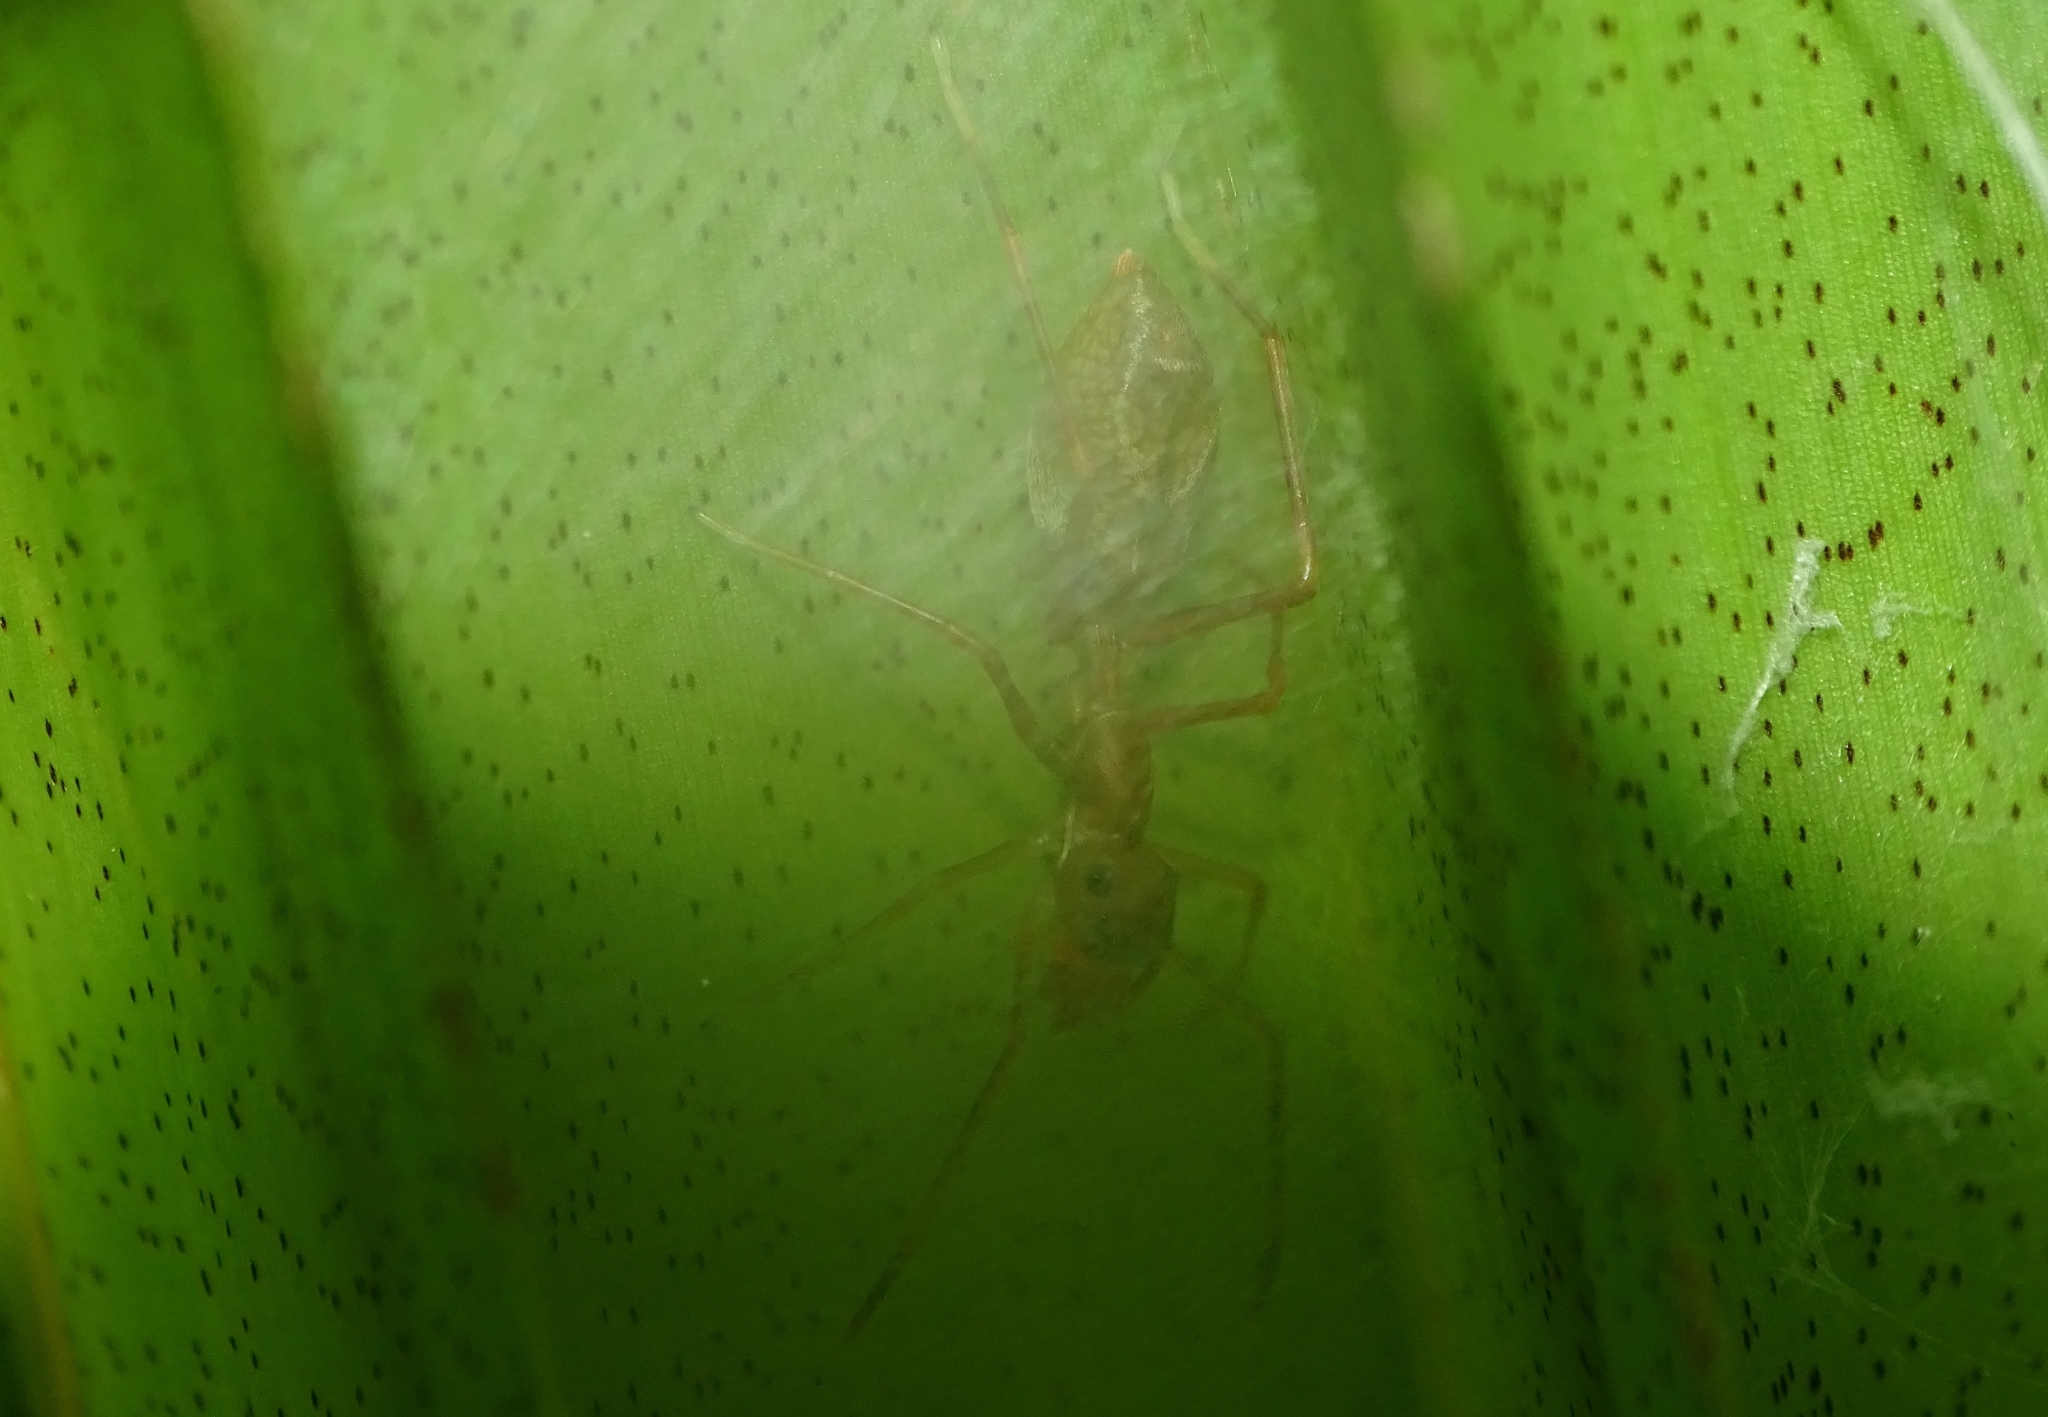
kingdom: Animalia
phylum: Arthropoda
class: Arachnida
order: Araneae
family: Salticidae
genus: Myrmaplata
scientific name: Myrmaplata plataleoides
